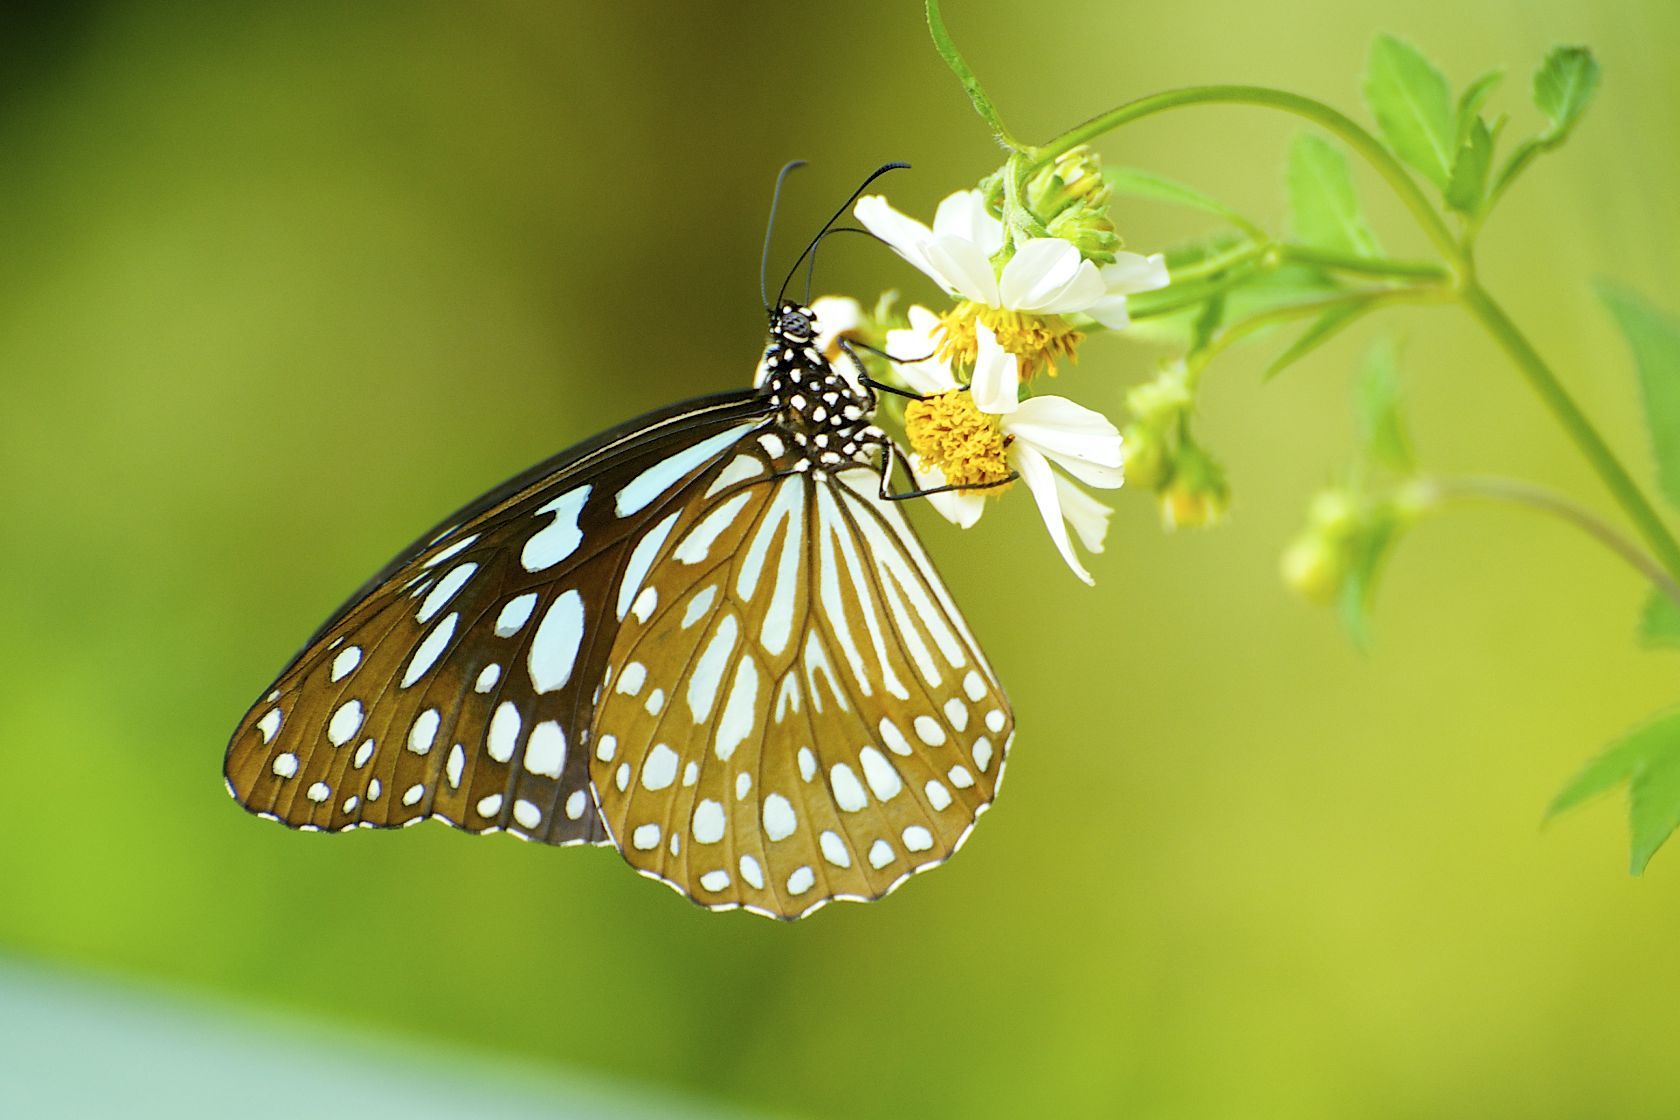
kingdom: Animalia
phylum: Arthropoda
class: Insecta
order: Lepidoptera
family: Nymphalidae
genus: Tirumala
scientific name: Tirumala limniace
